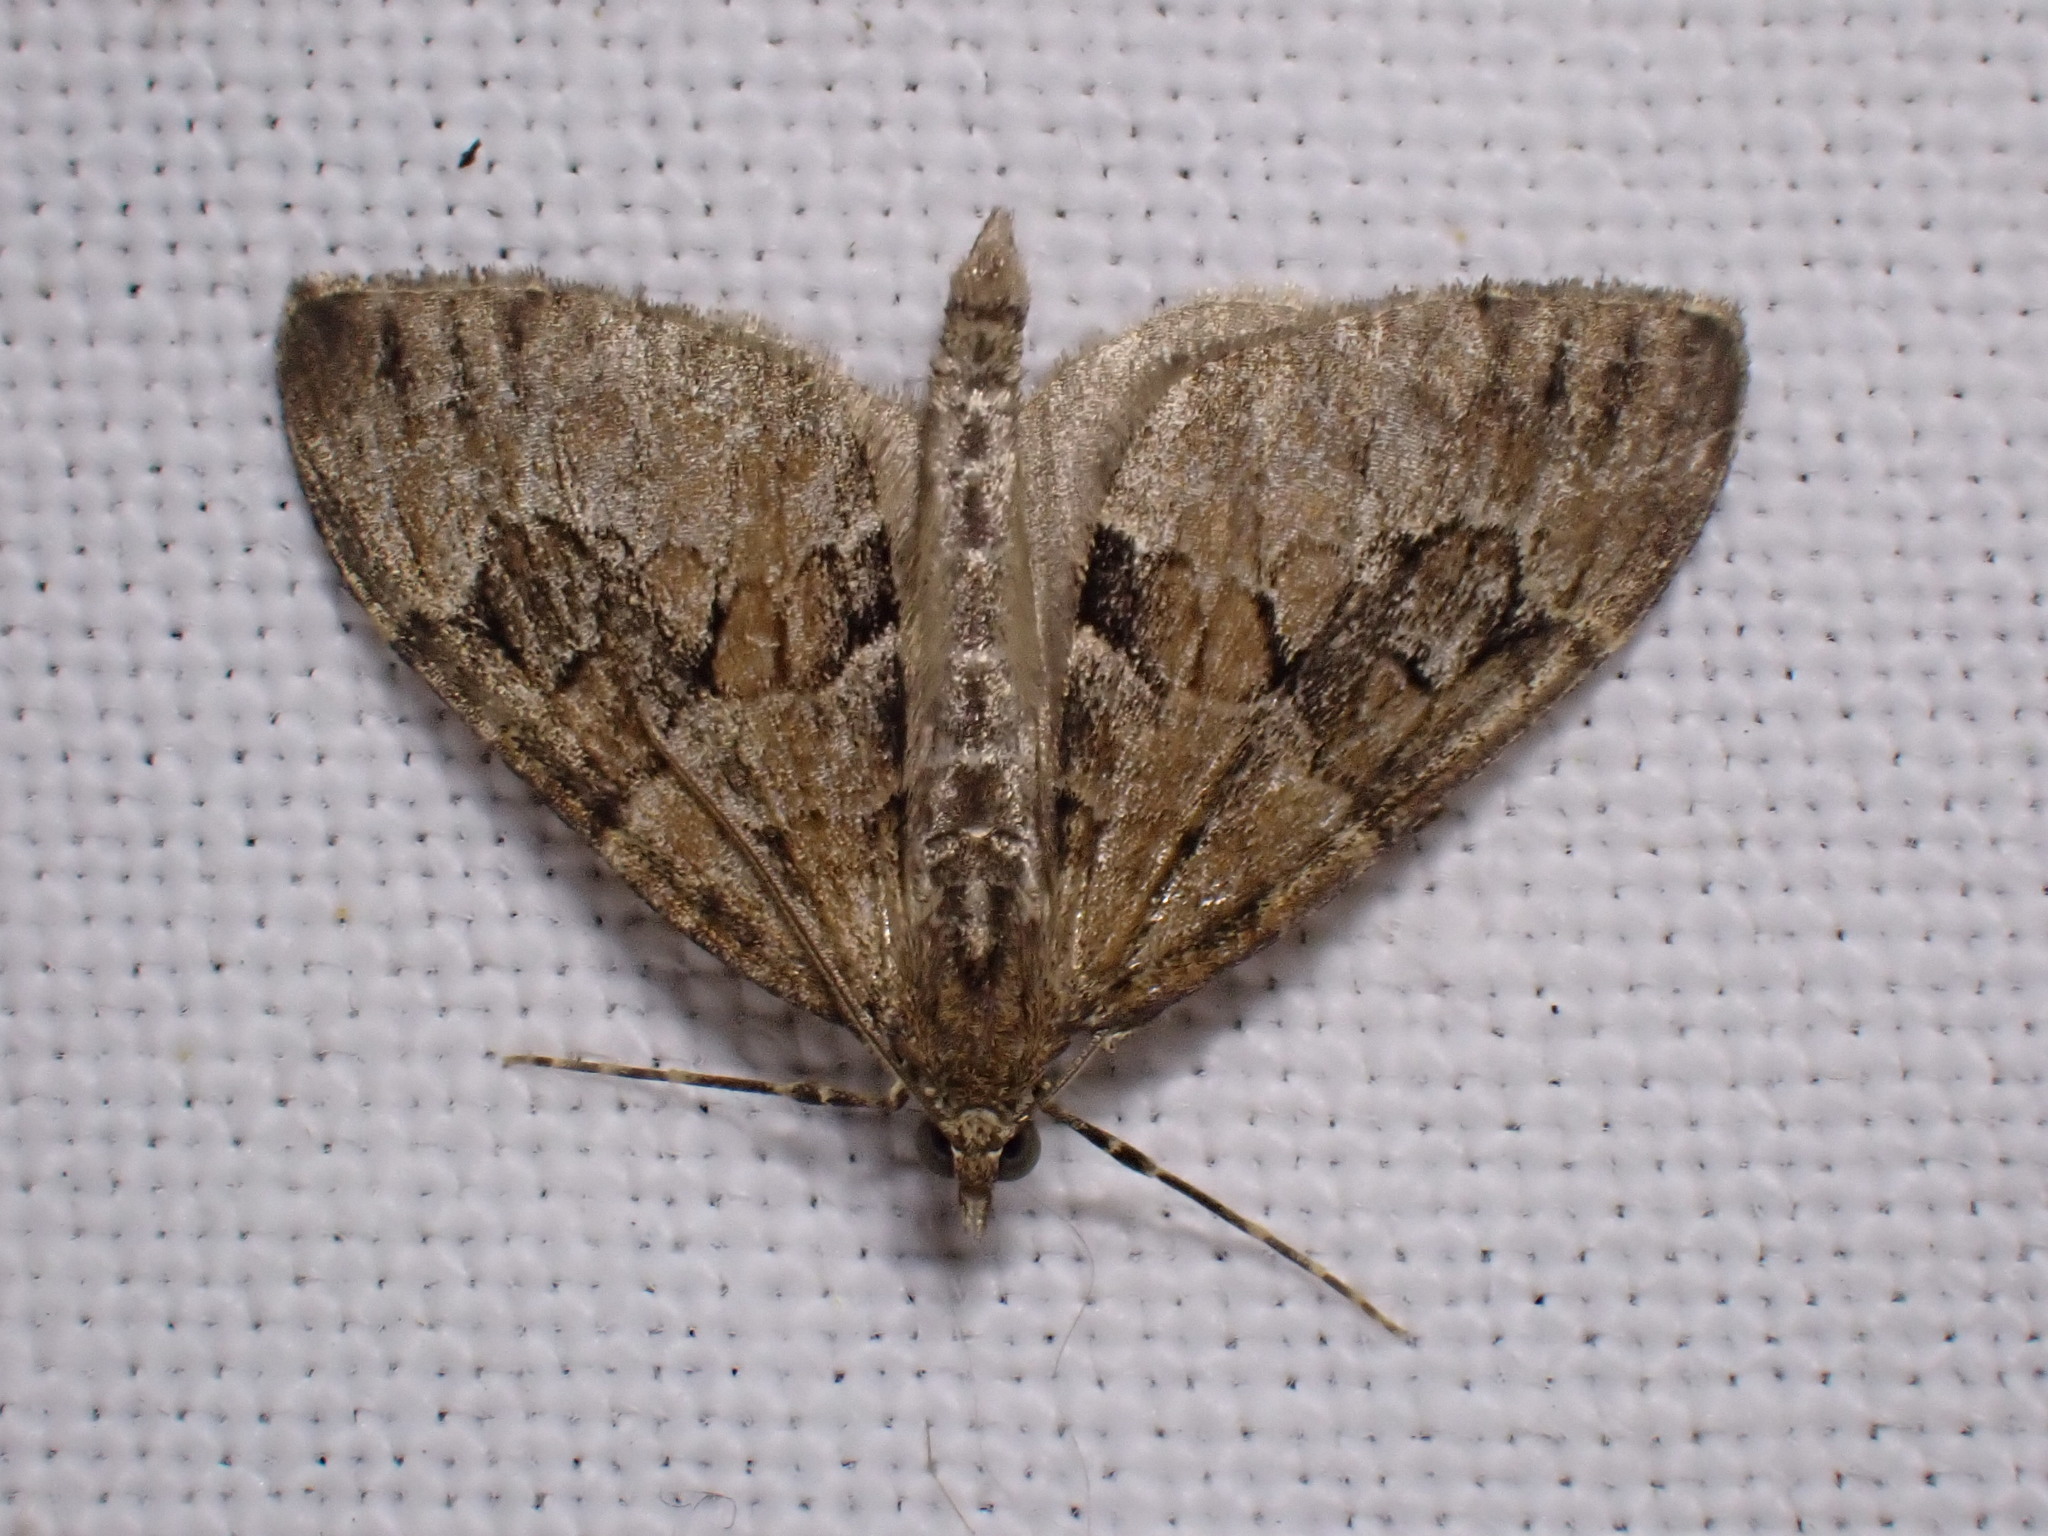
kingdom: Animalia
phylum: Arthropoda
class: Insecta
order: Lepidoptera
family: Geometridae
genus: Thera
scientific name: Thera obeliscata
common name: Grey pine carpet
